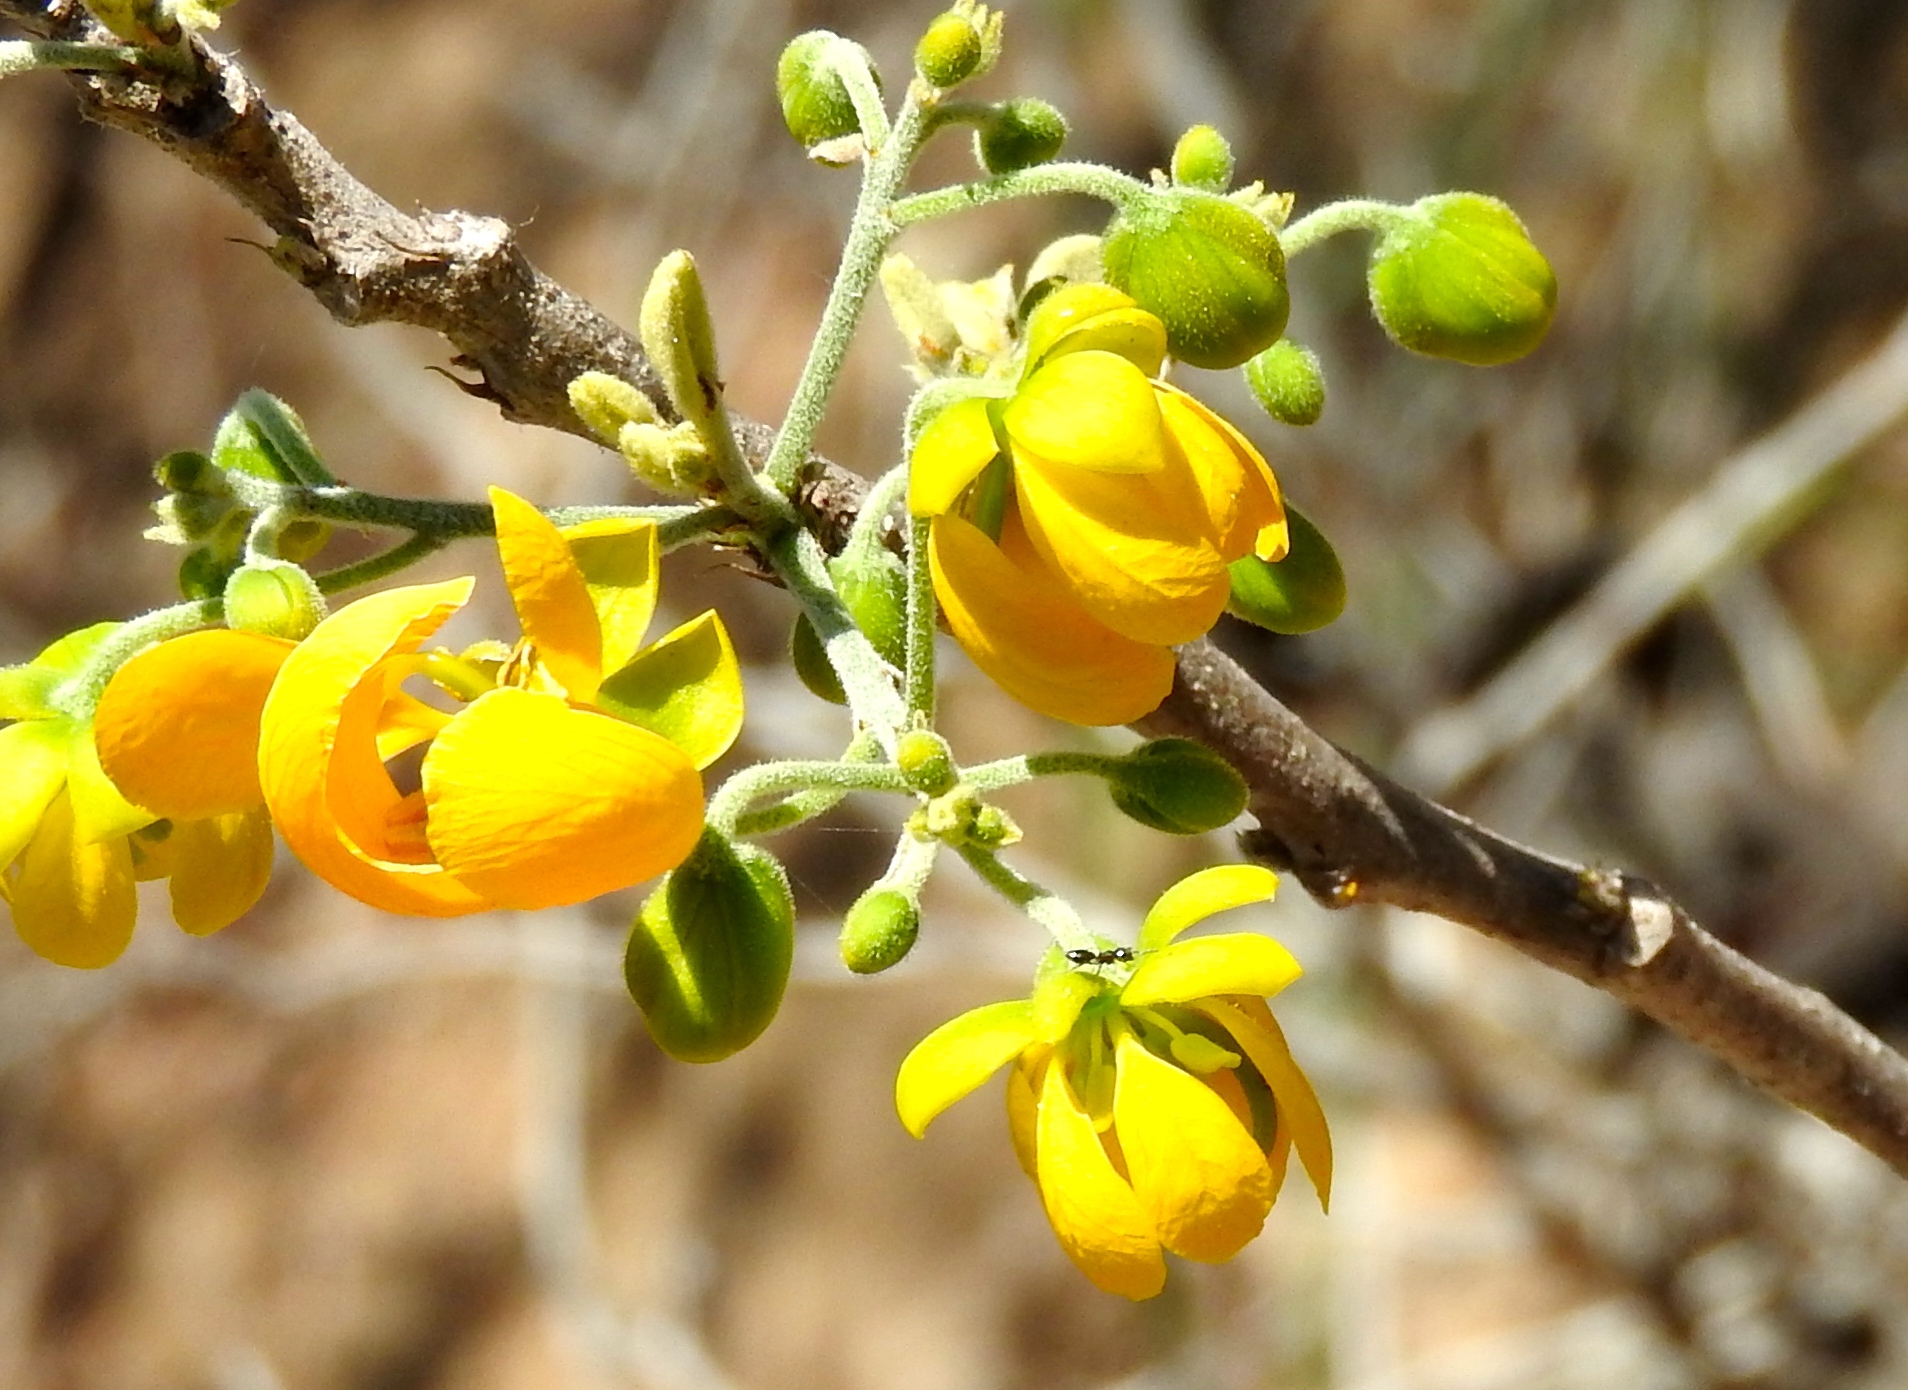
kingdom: Plantae
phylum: Tracheophyta
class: Magnoliopsida
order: Fabales
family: Fabaceae
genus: Senna
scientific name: Senna atomaria
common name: Flor de san jose
